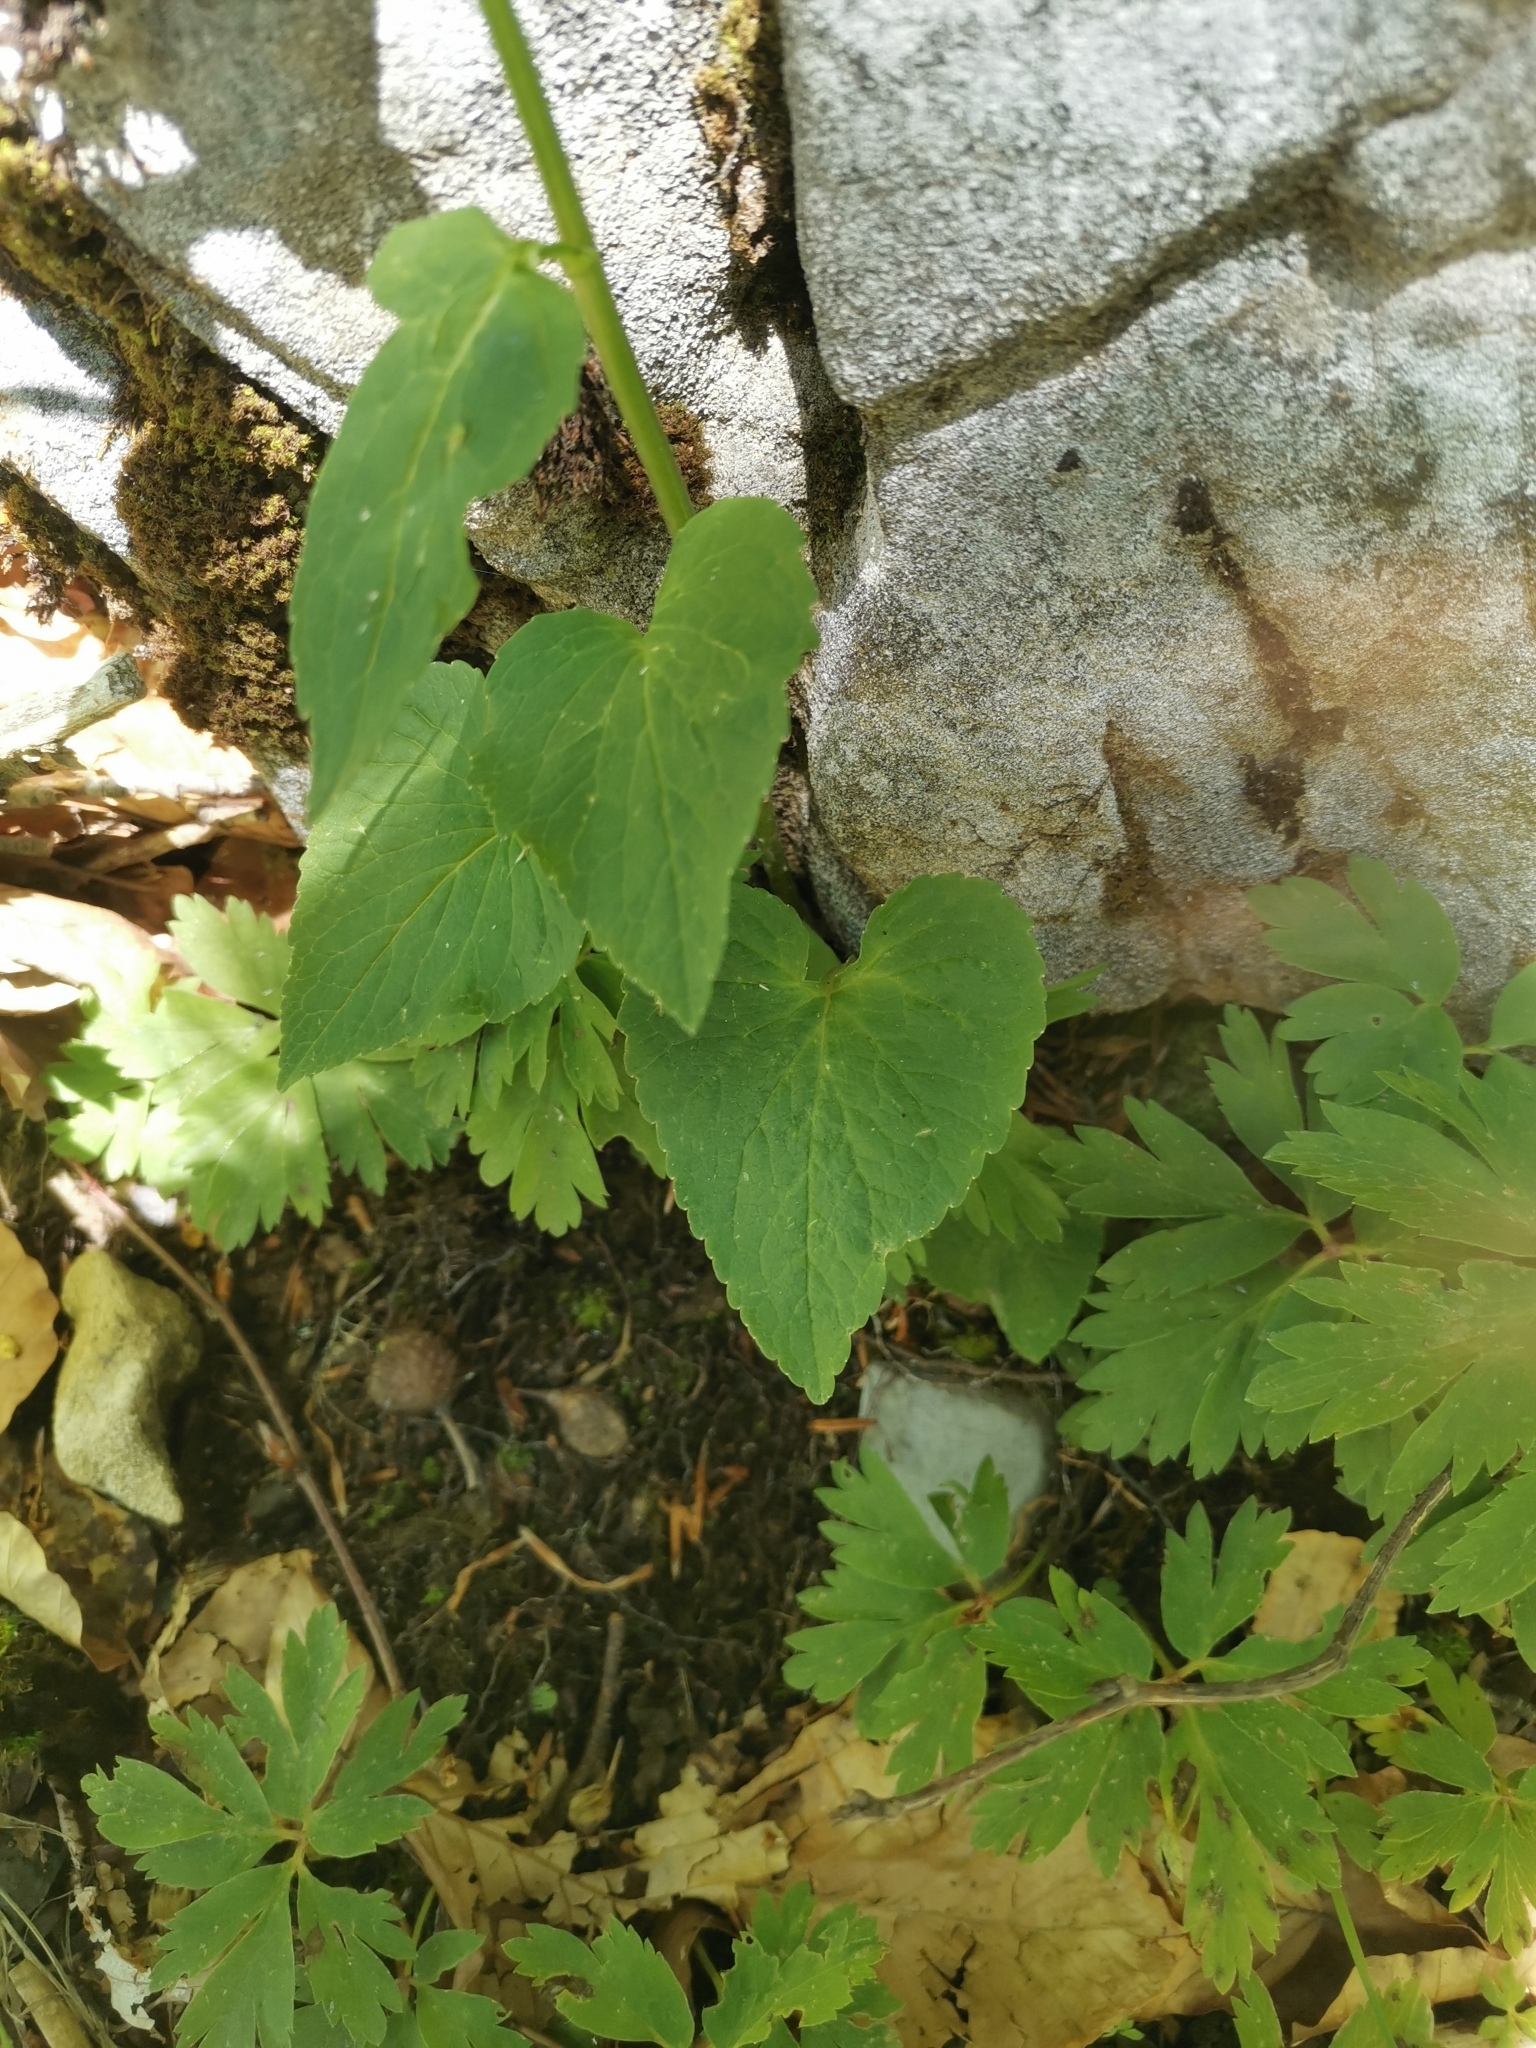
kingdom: Plantae
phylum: Tracheophyta
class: Magnoliopsida
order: Asterales
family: Campanulaceae
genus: Phyteuma
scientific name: Phyteuma ovatum
